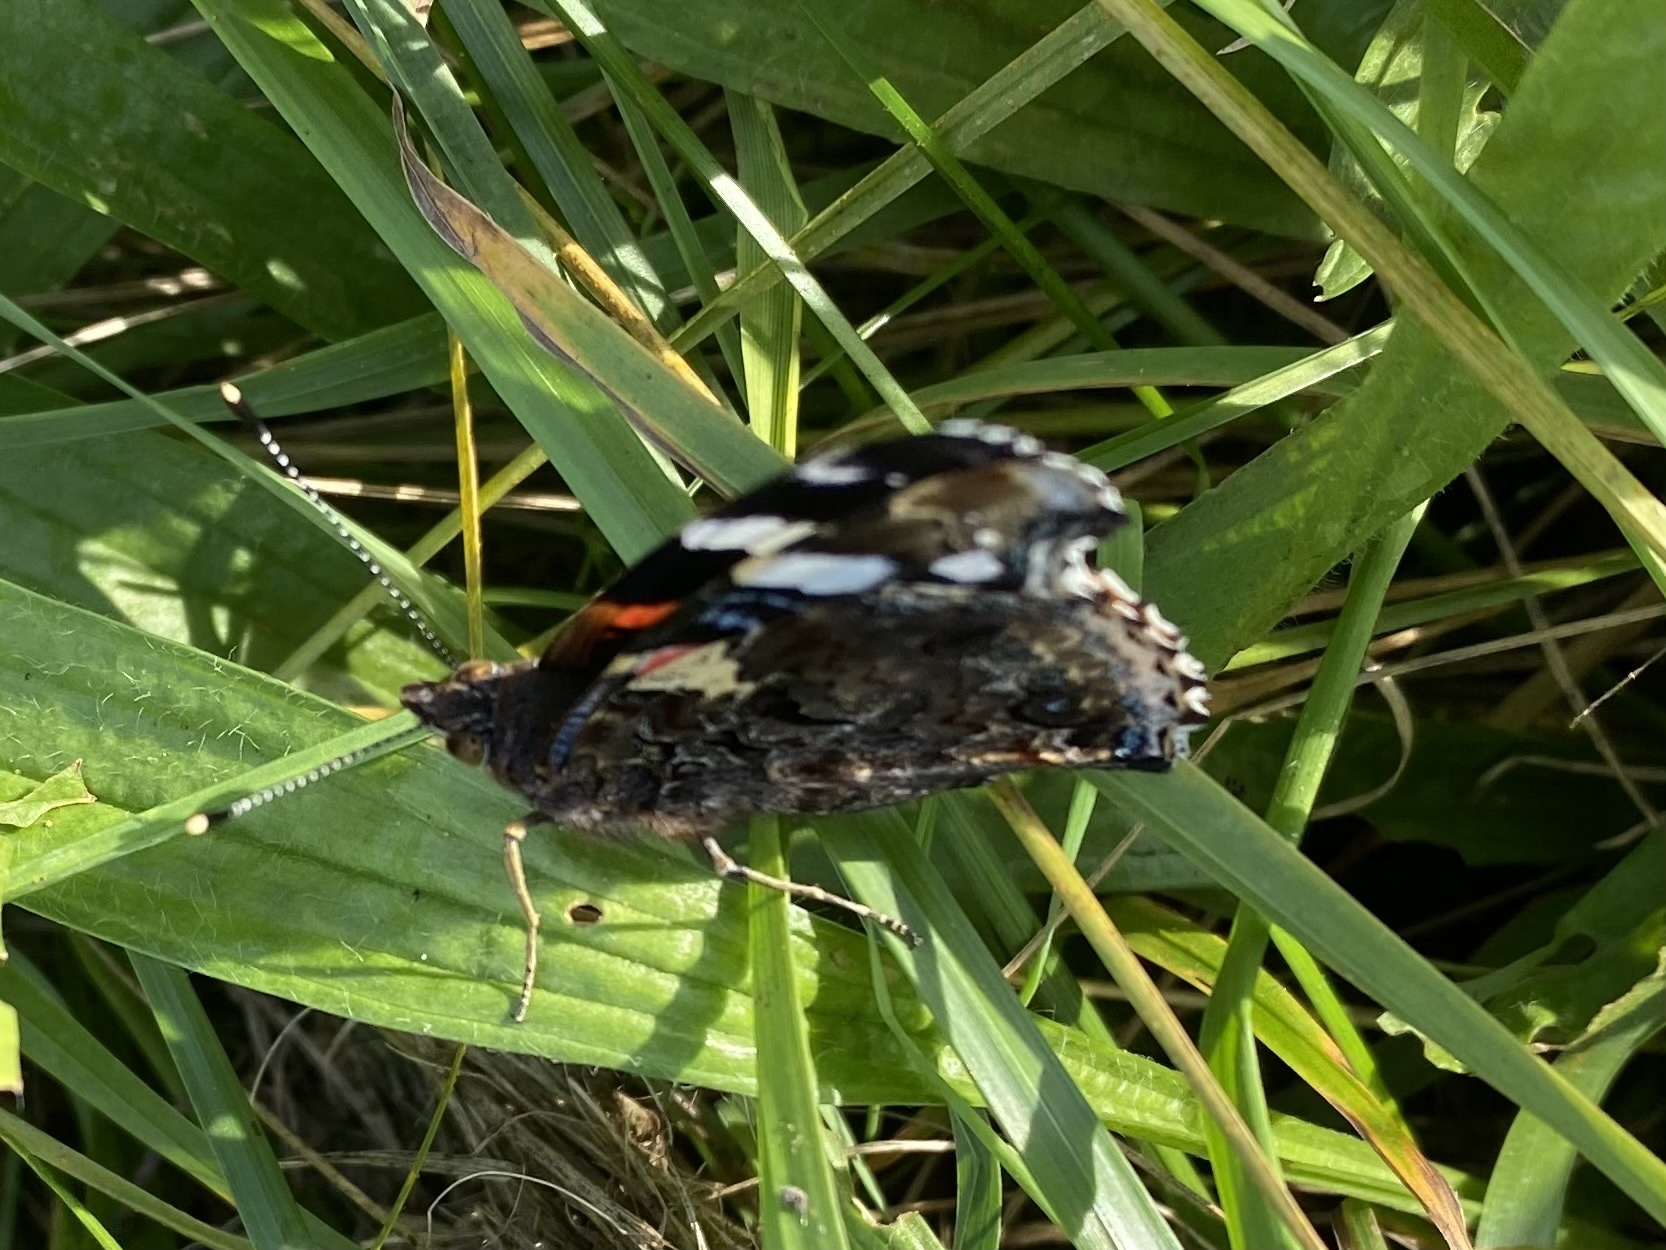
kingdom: Animalia
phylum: Arthropoda
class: Insecta
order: Lepidoptera
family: Nymphalidae
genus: Vanessa
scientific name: Vanessa atalanta
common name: Red admiral
